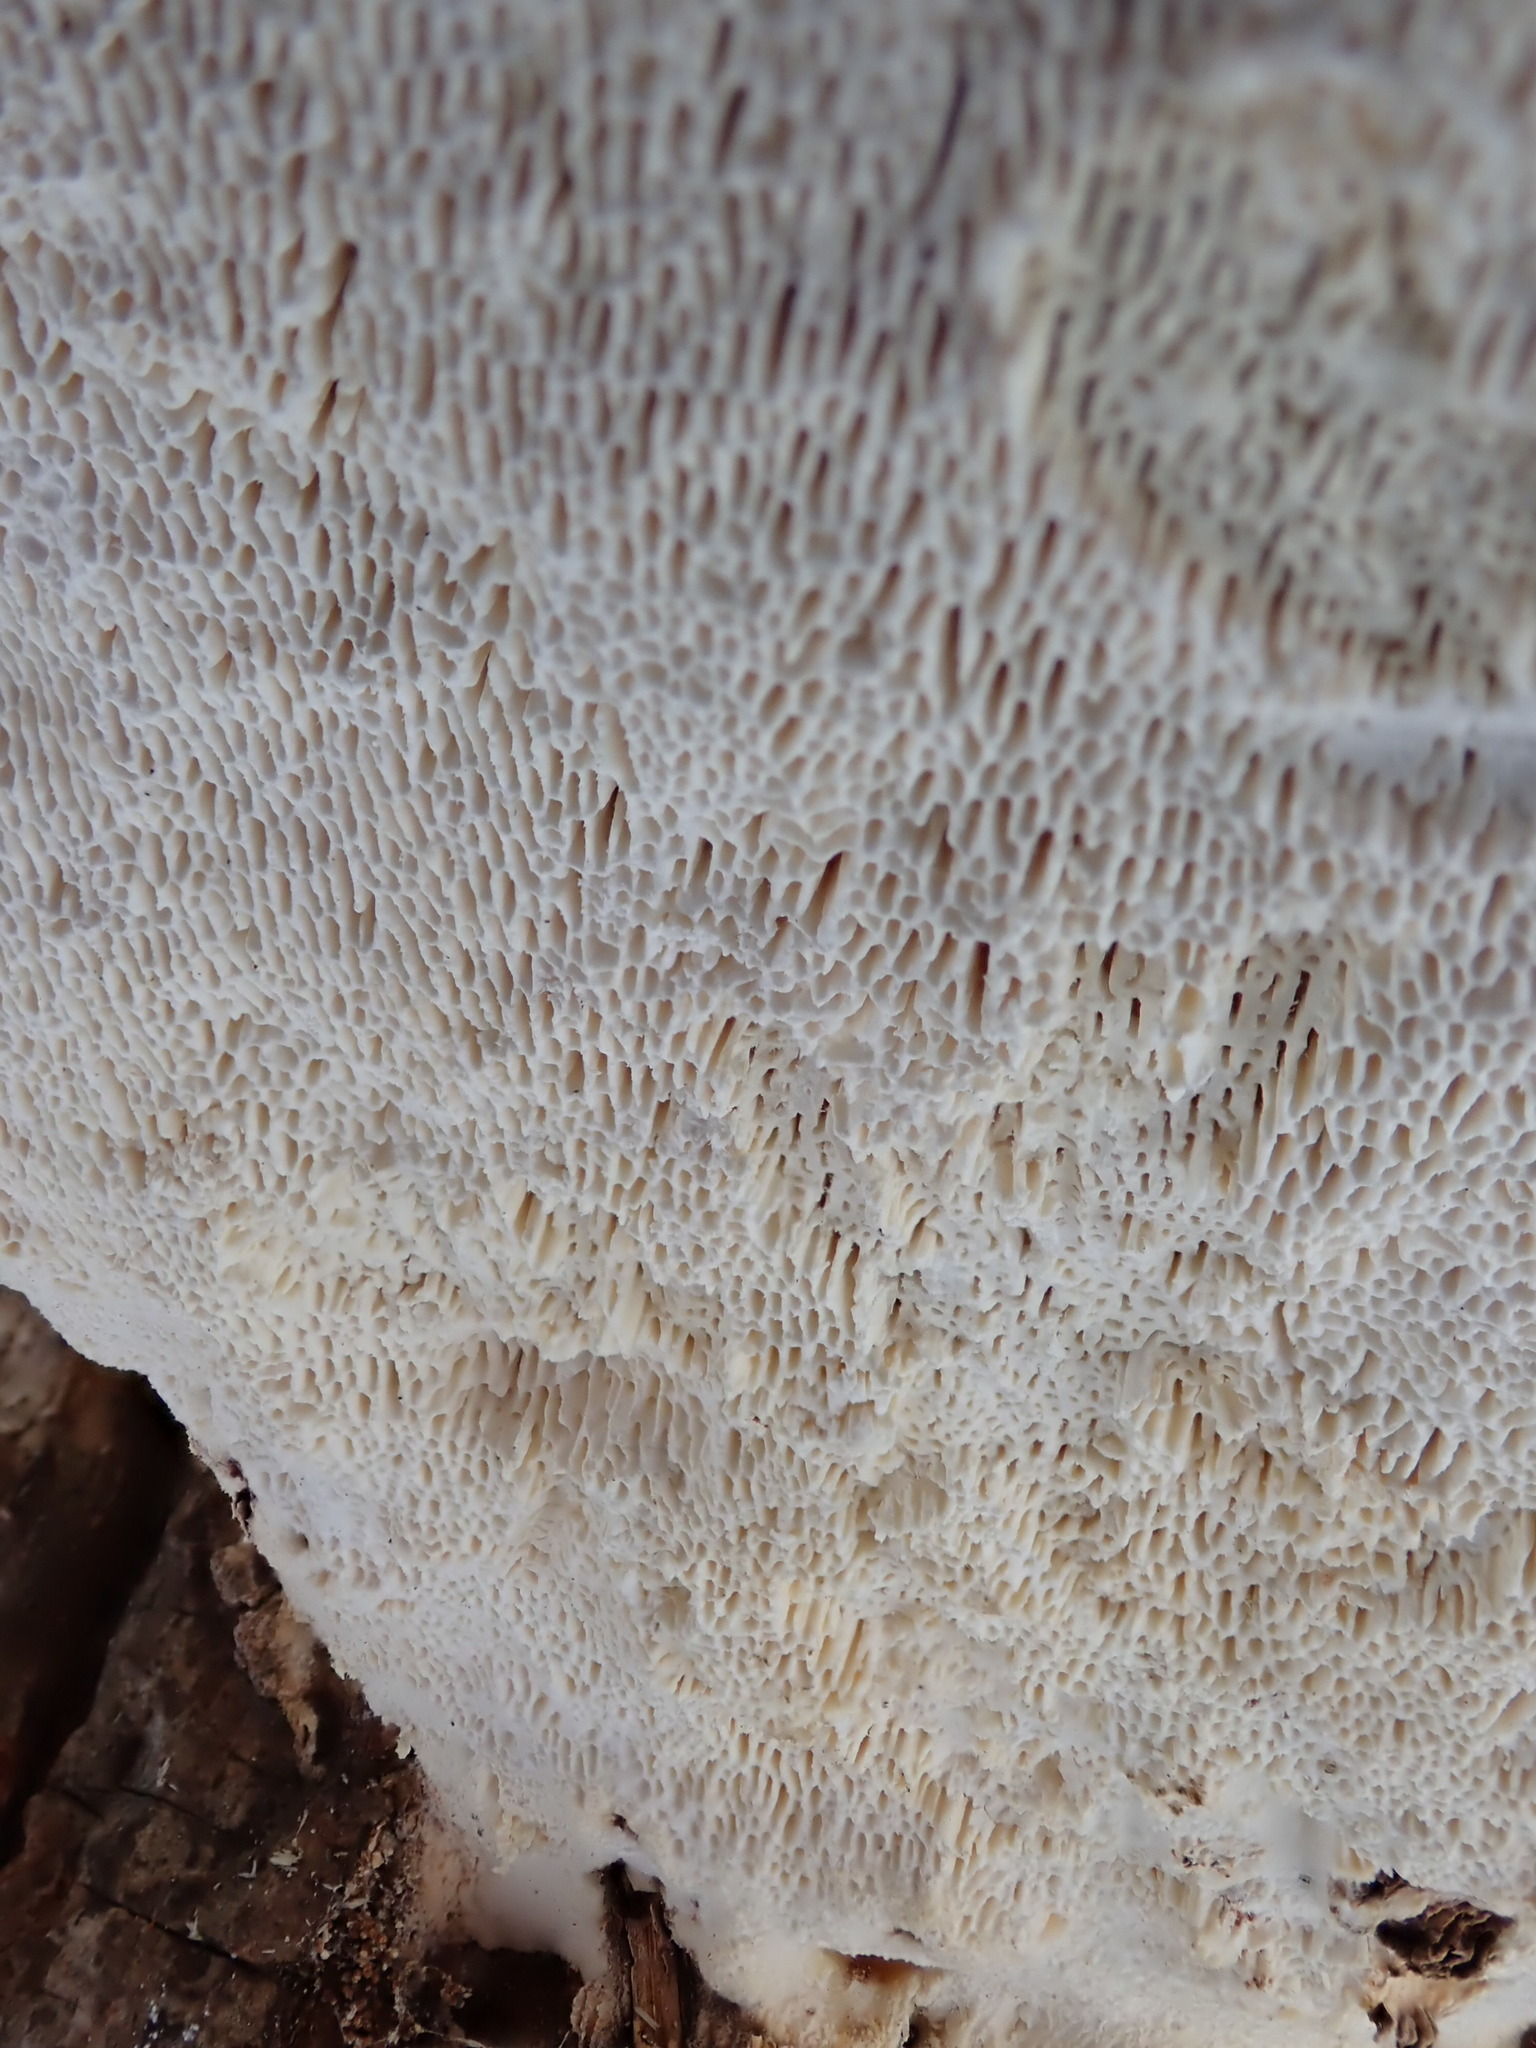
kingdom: Fungi
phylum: Basidiomycota
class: Agaricomycetes
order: Polyporales
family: Polyporaceae
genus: Trametes
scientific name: Trametes gibbosa
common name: Lumpy bracket
